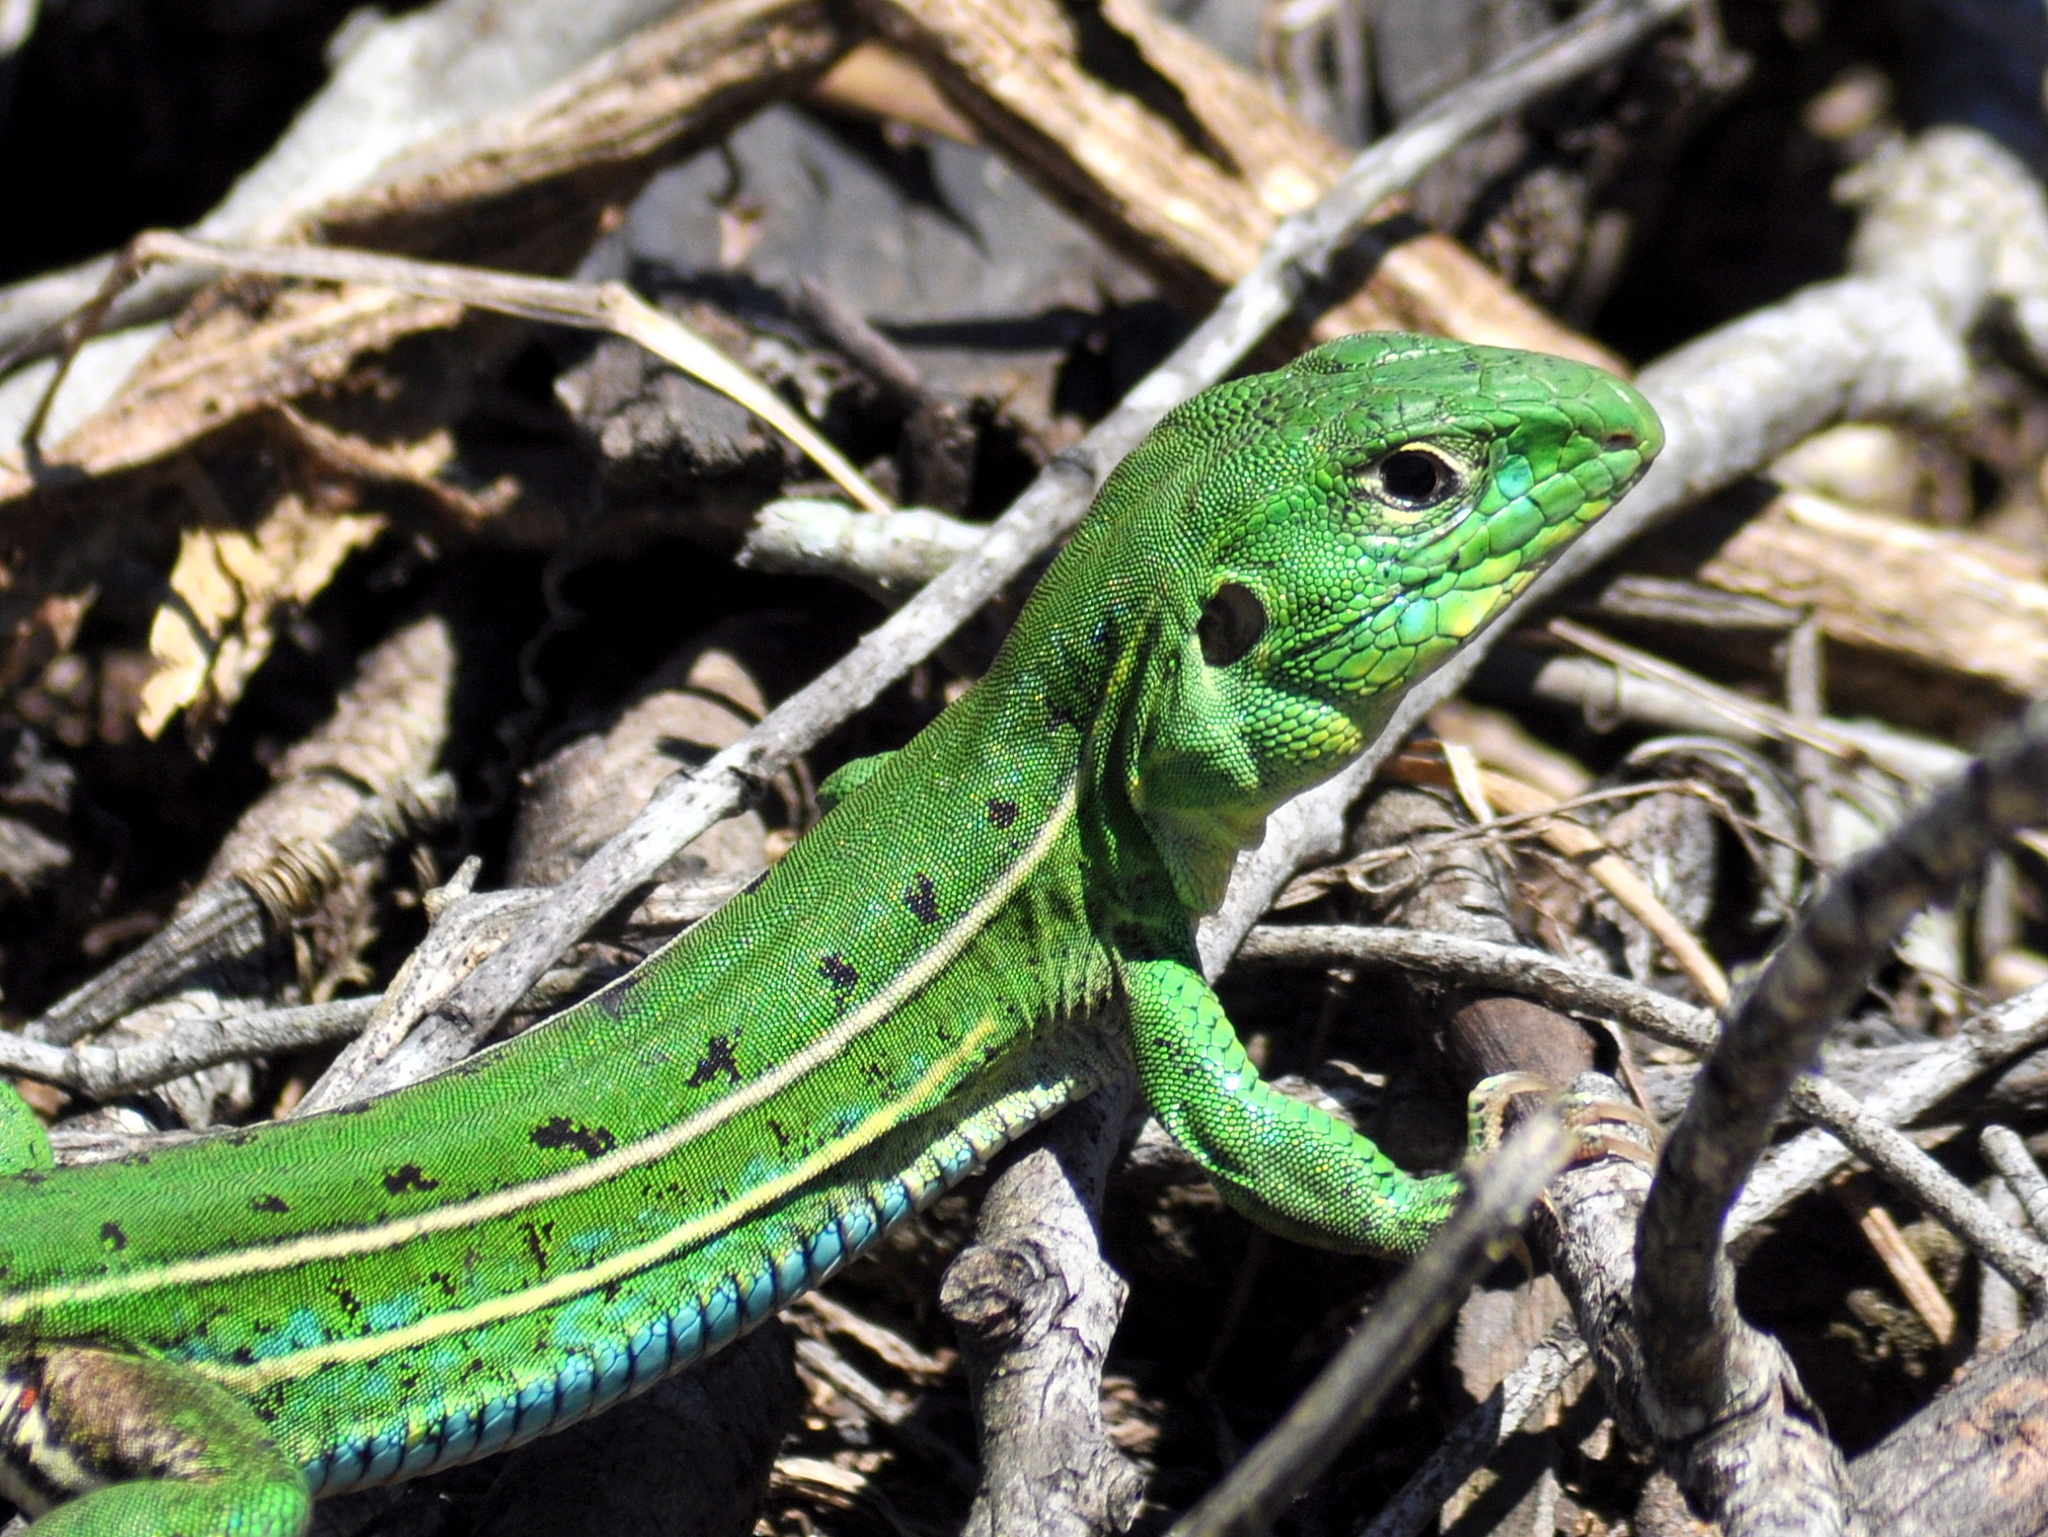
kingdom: Animalia
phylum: Chordata
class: Squamata
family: Teiidae
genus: Teius
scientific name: Teius oculatus
